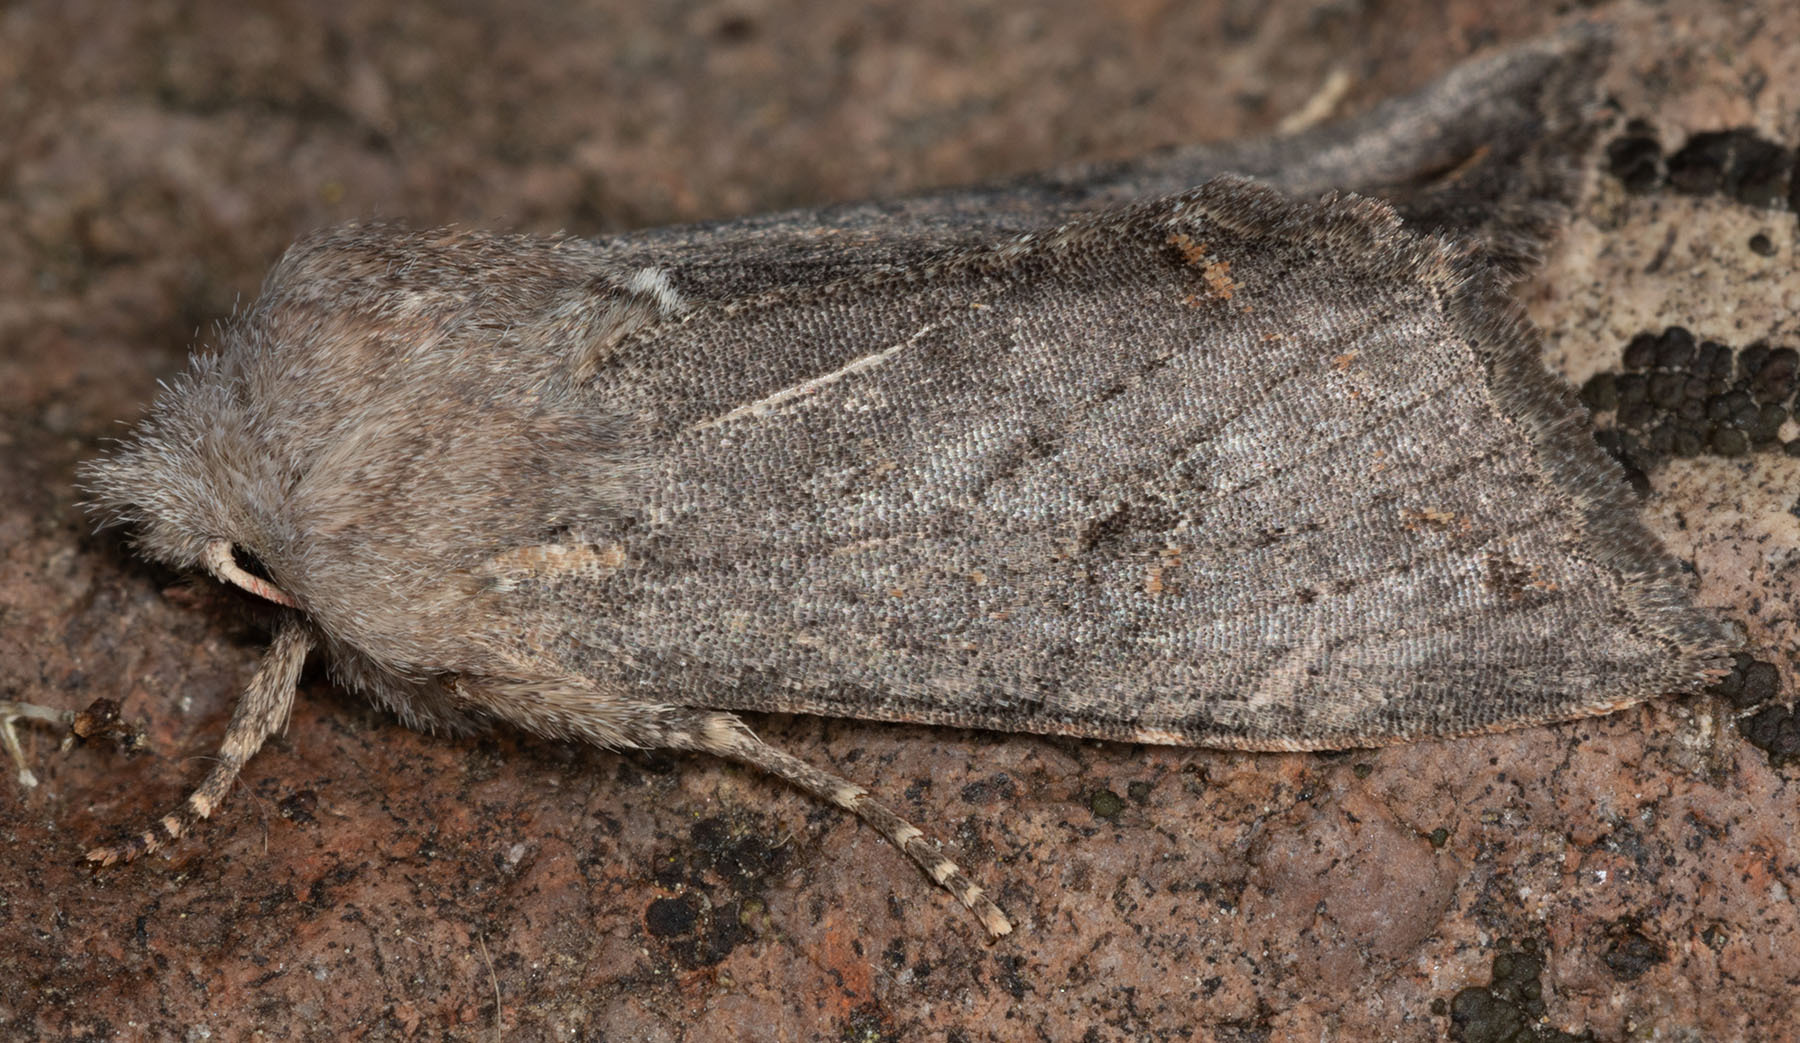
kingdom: Animalia
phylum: Arthropoda
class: Insecta
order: Lepidoptera
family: Noctuidae
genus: Orthosia
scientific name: Orthosia erythrolita
